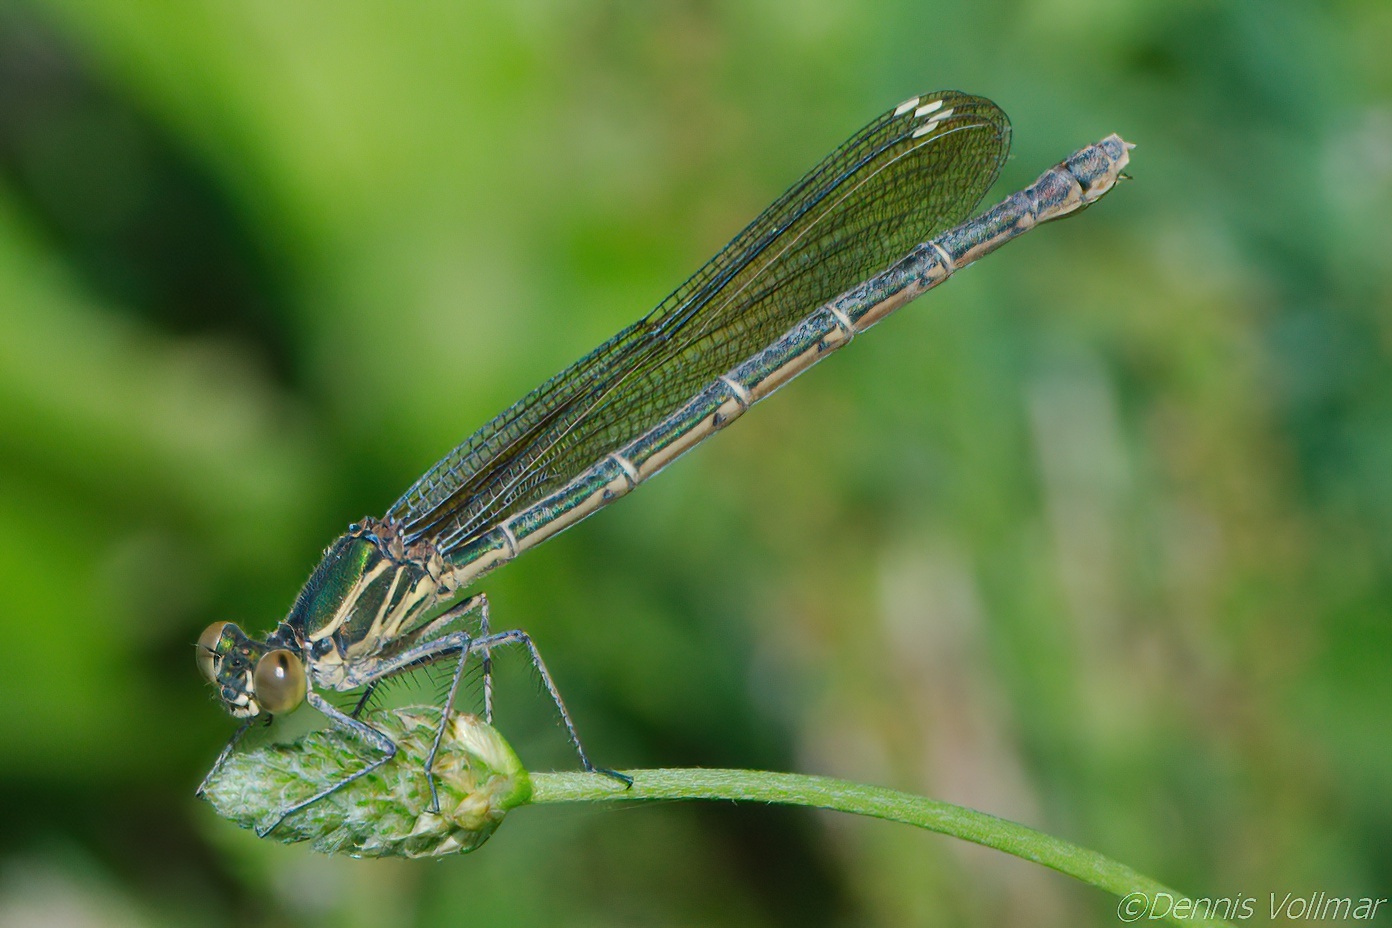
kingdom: Animalia
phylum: Arthropoda
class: Insecta
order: Odonata
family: Calopterygidae
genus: Hetaerina
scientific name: Hetaerina americana
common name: American rubyspot
